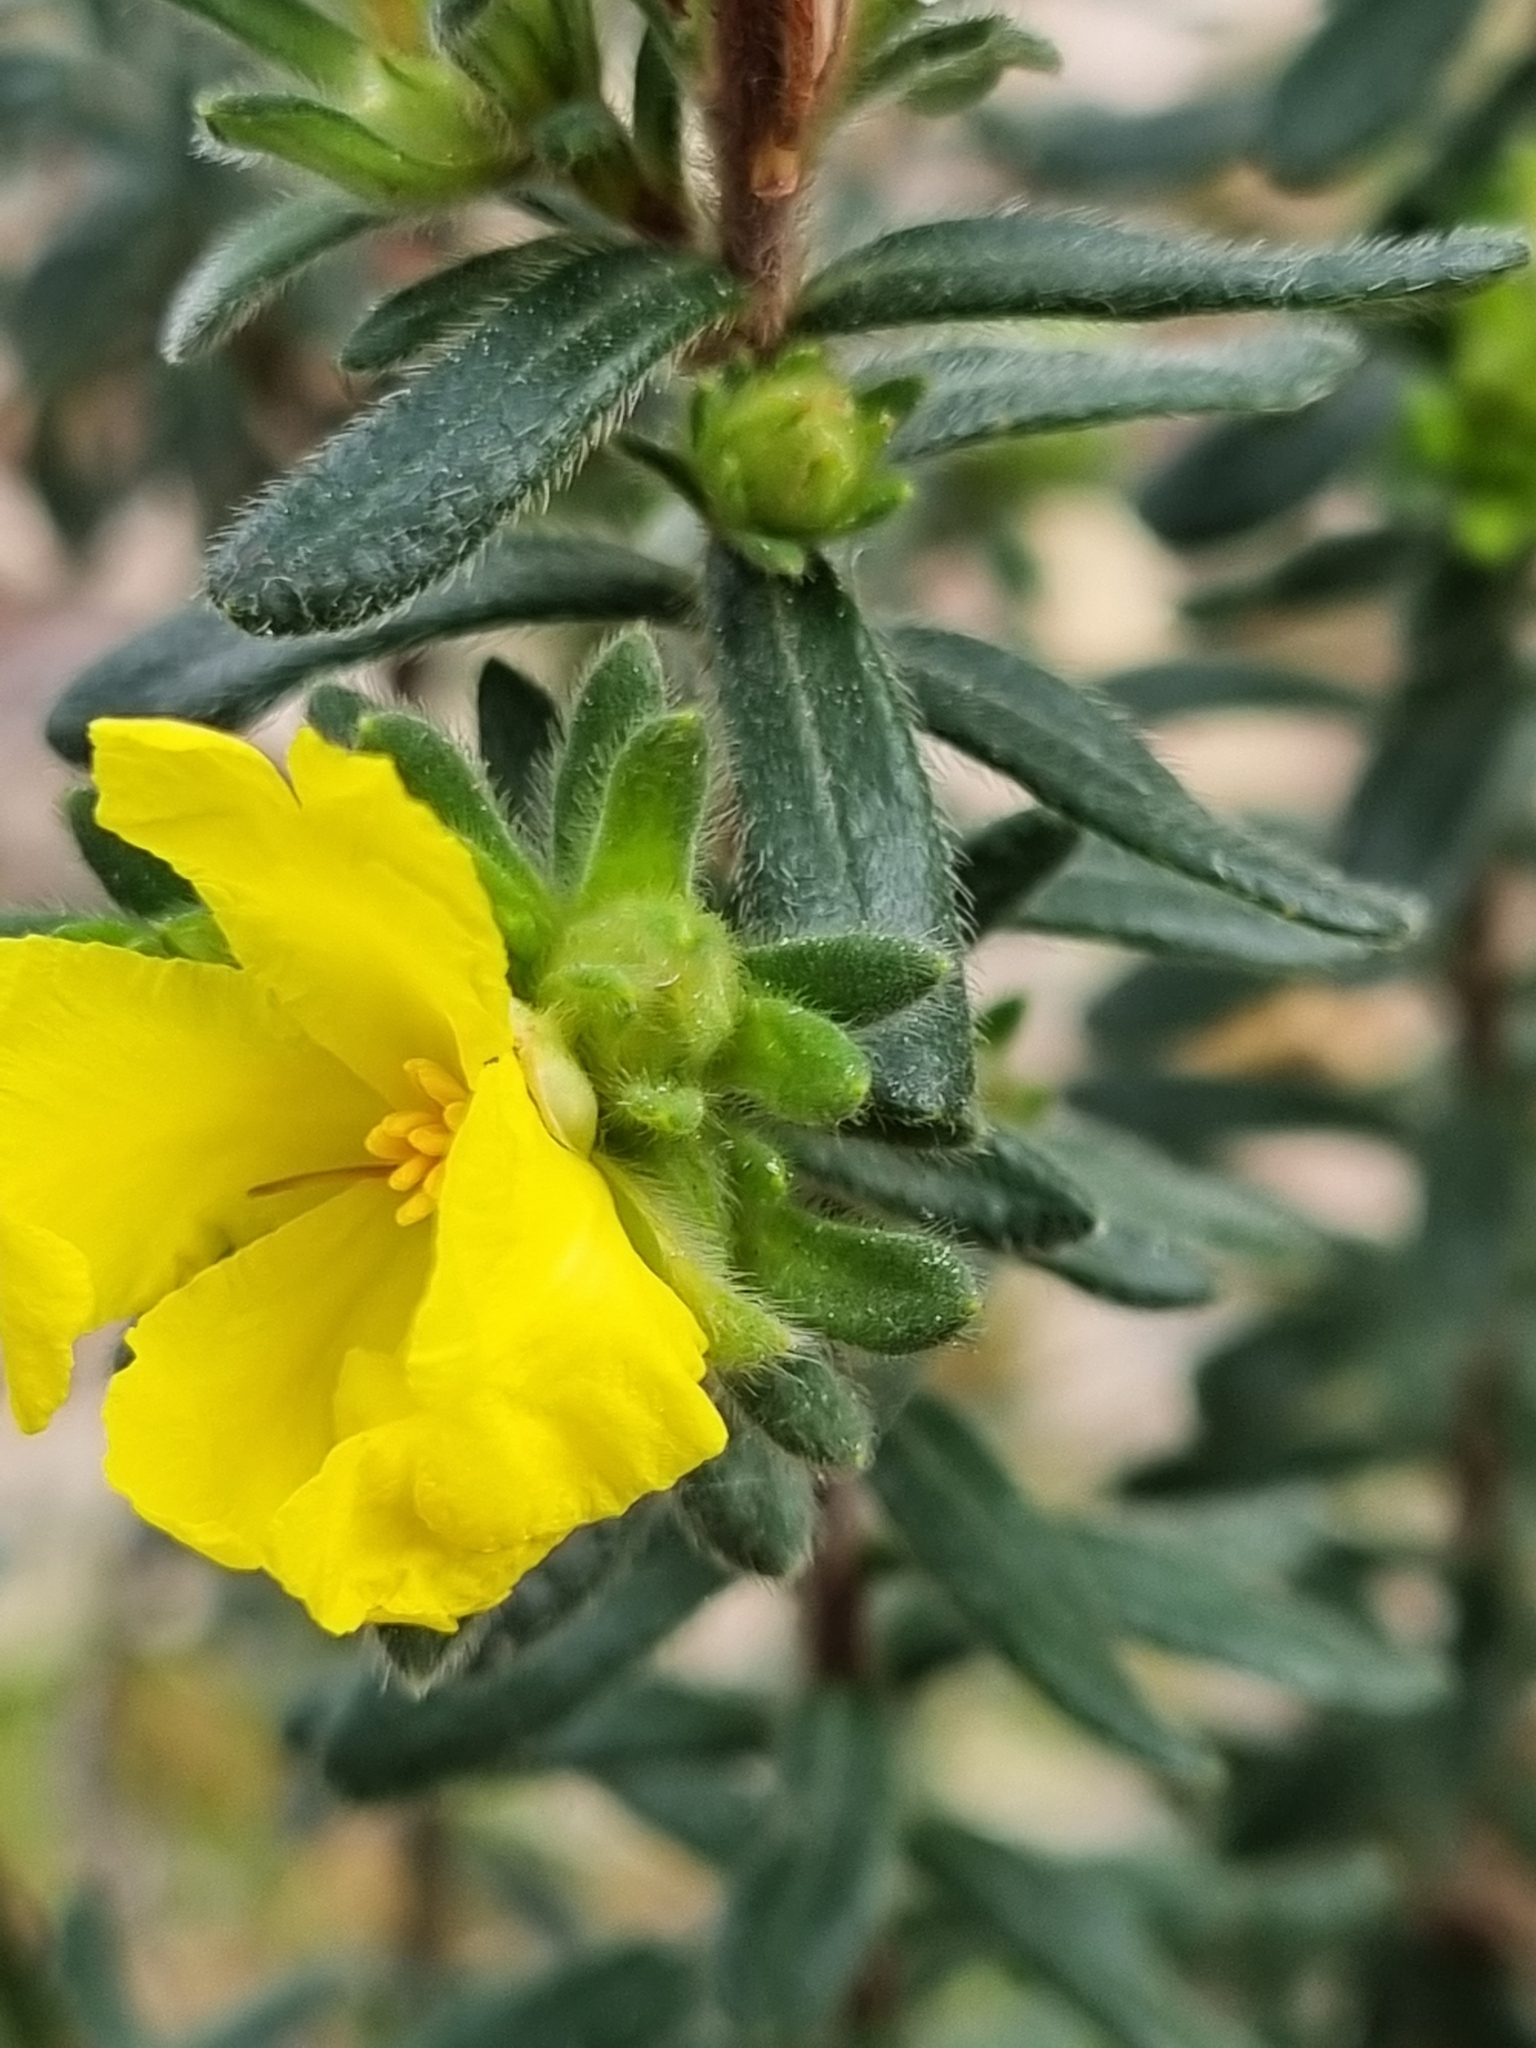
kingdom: Plantae
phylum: Tracheophyta
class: Magnoliopsida
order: Dilleniales
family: Dilleniaceae
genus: Hibbertia
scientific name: Hibbertia sericea
